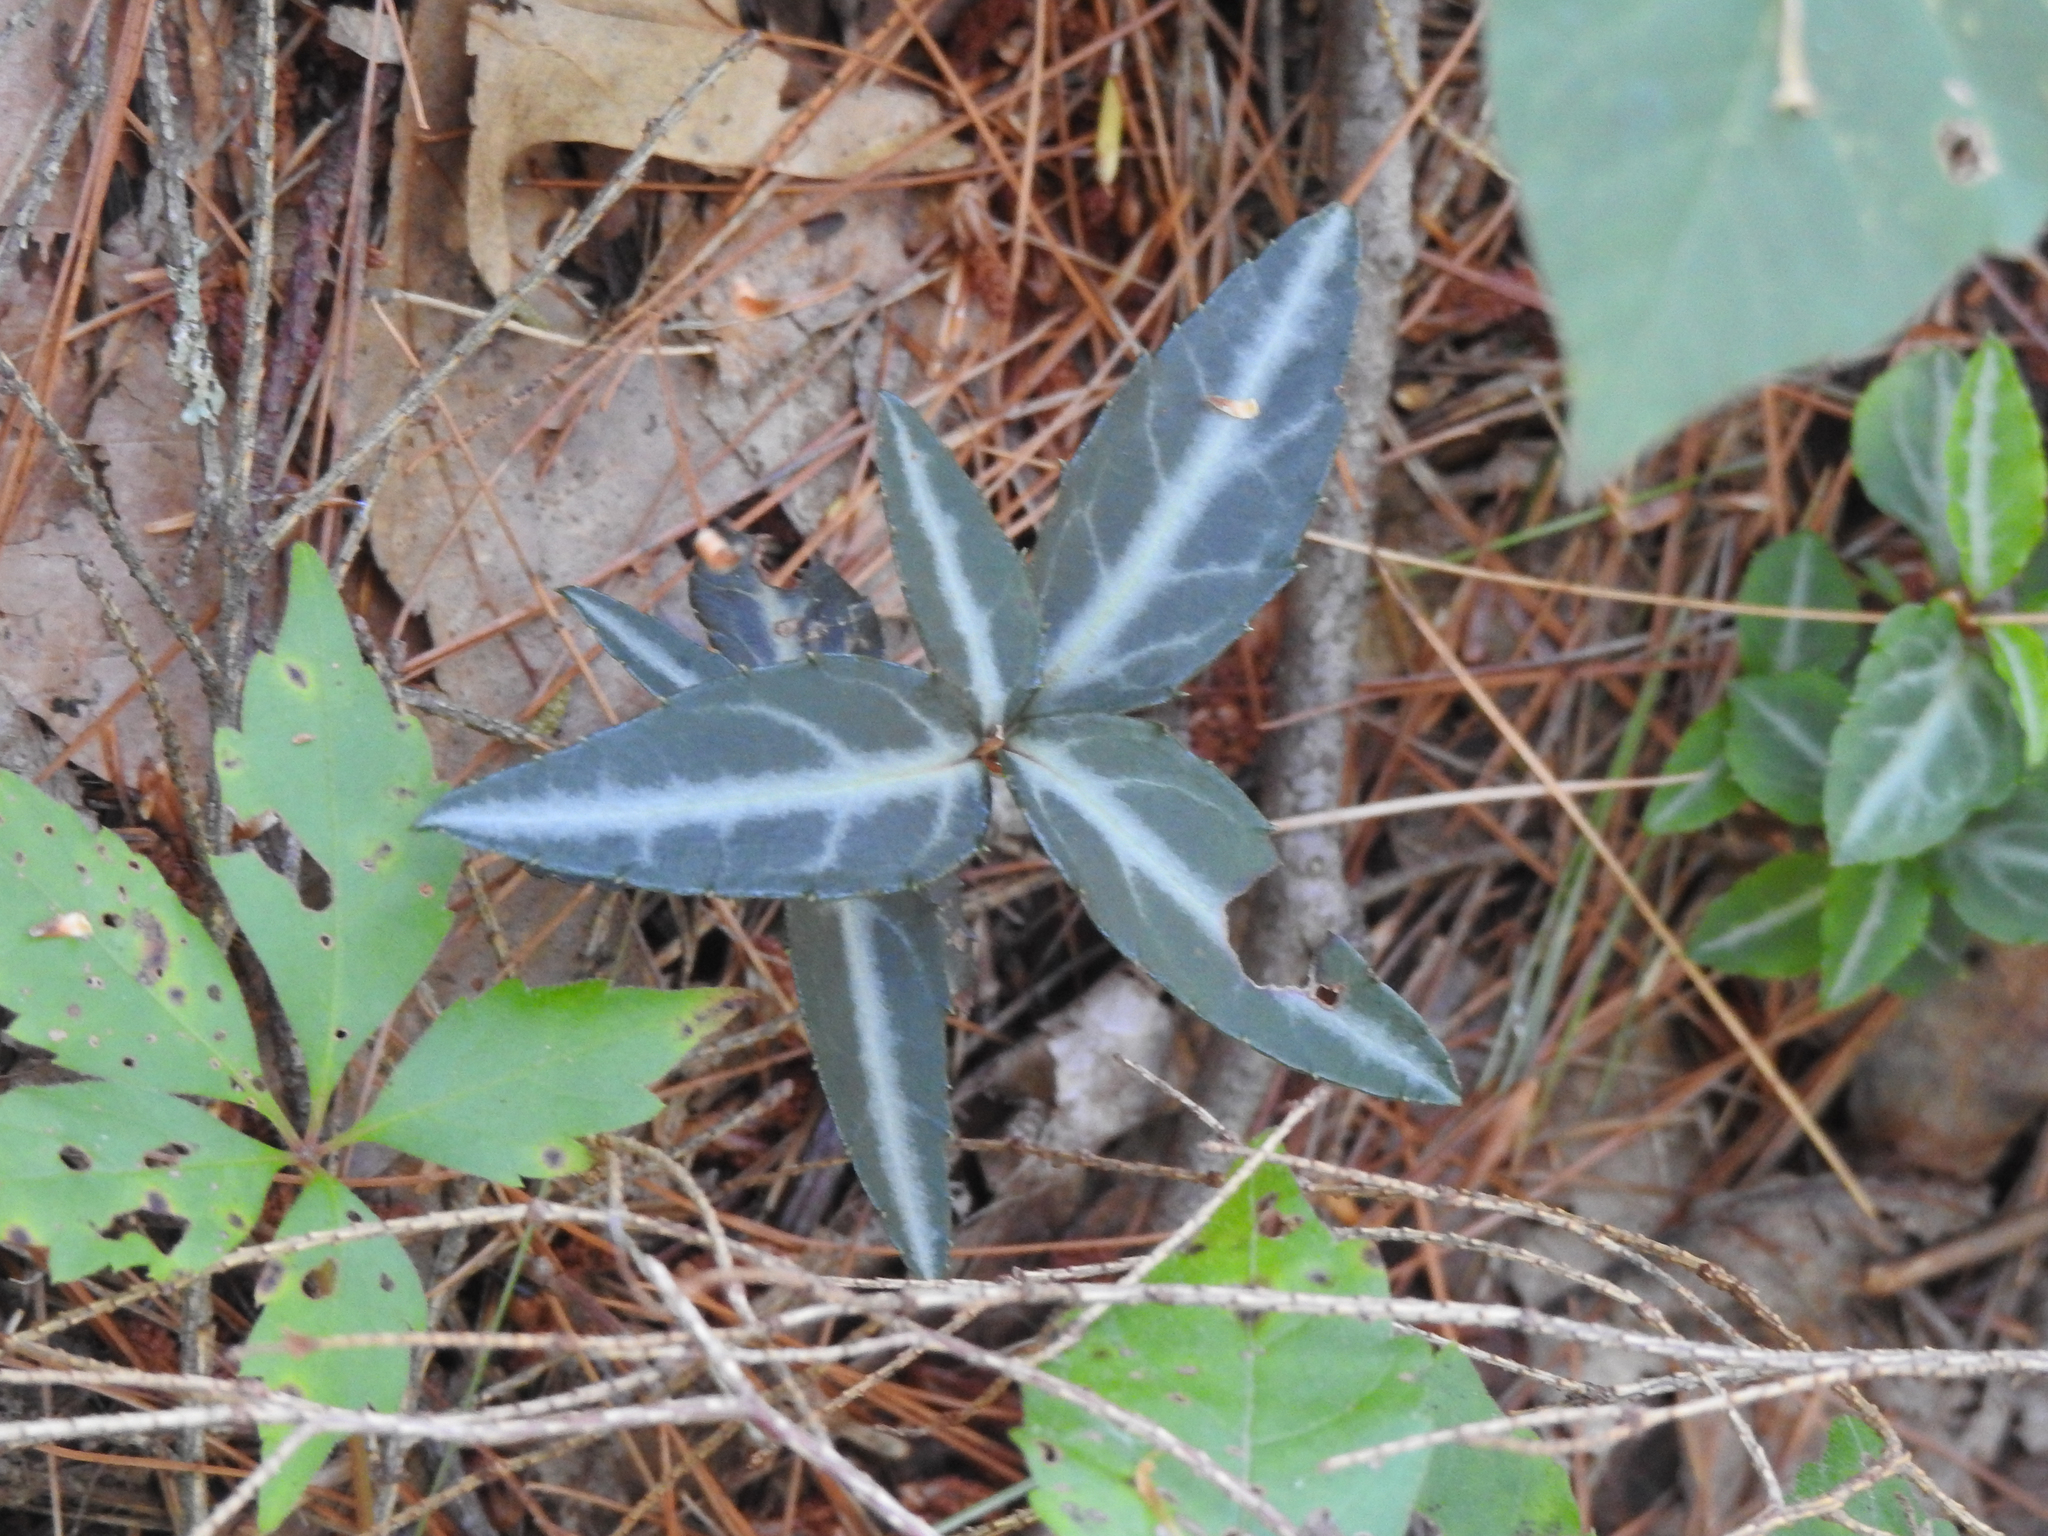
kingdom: Plantae
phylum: Tracheophyta
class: Magnoliopsida
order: Ericales
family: Ericaceae
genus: Chimaphila
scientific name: Chimaphila maculata
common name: Spotted pipsissewa
